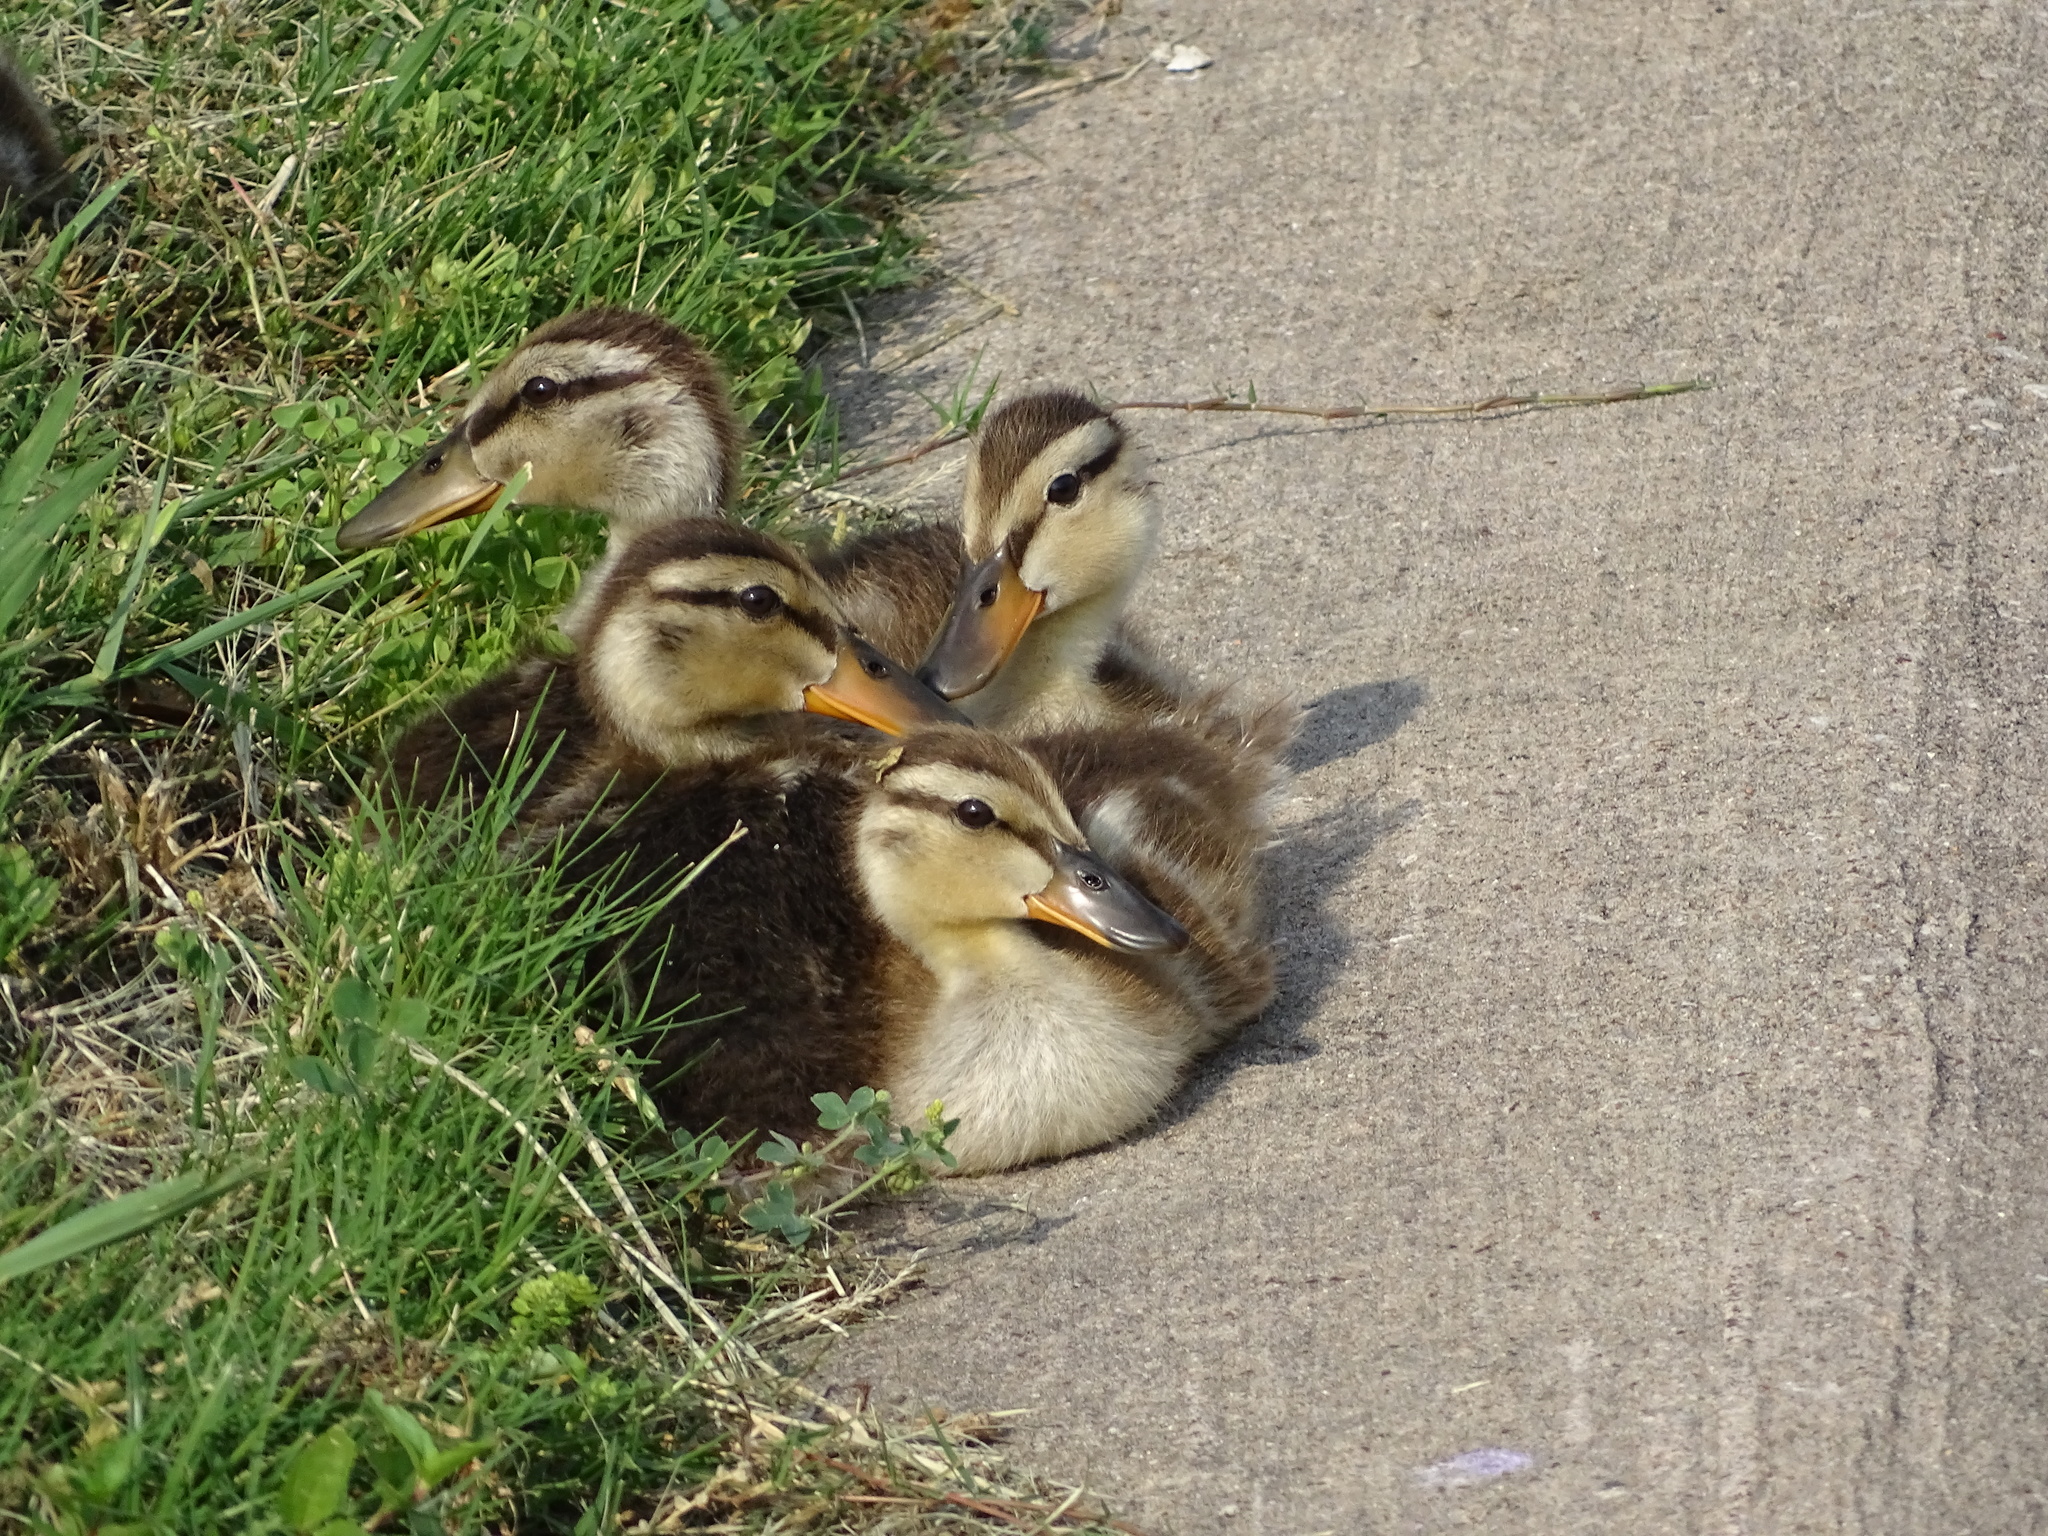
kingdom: Animalia
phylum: Chordata
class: Aves
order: Anseriformes
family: Anatidae
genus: Anas
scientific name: Anas platyrhynchos
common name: Mallard
